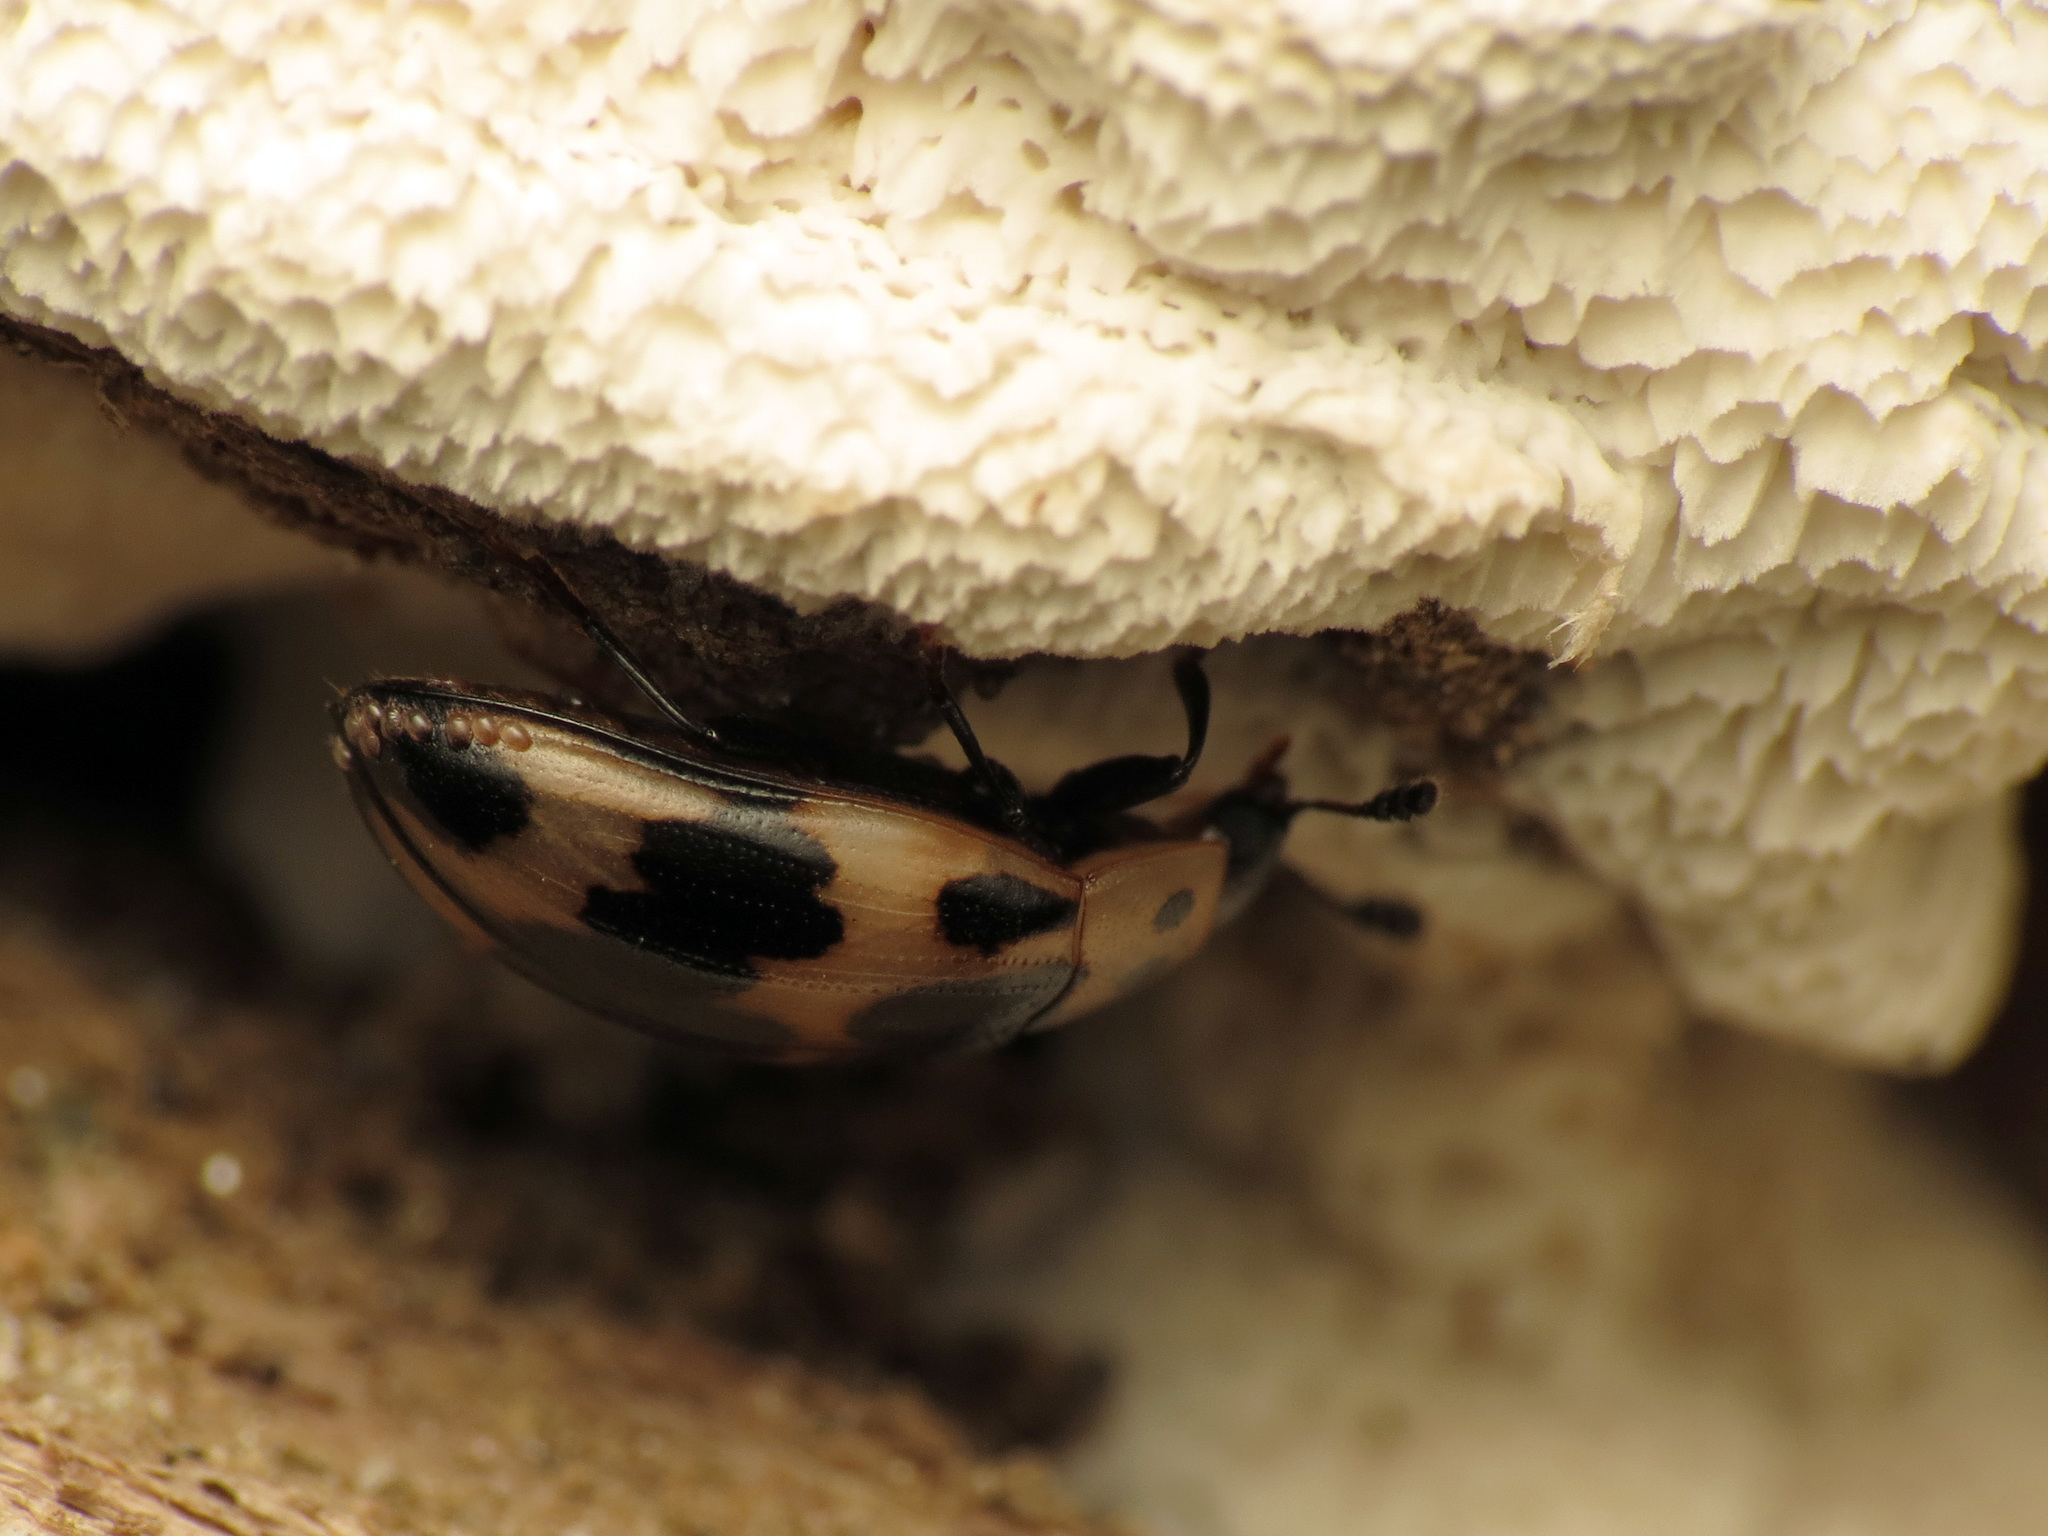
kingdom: Animalia
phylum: Arthropoda
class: Insecta
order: Coleoptera
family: Erotylidae
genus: Ischyrus
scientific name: Ischyrus quadripunctatus
